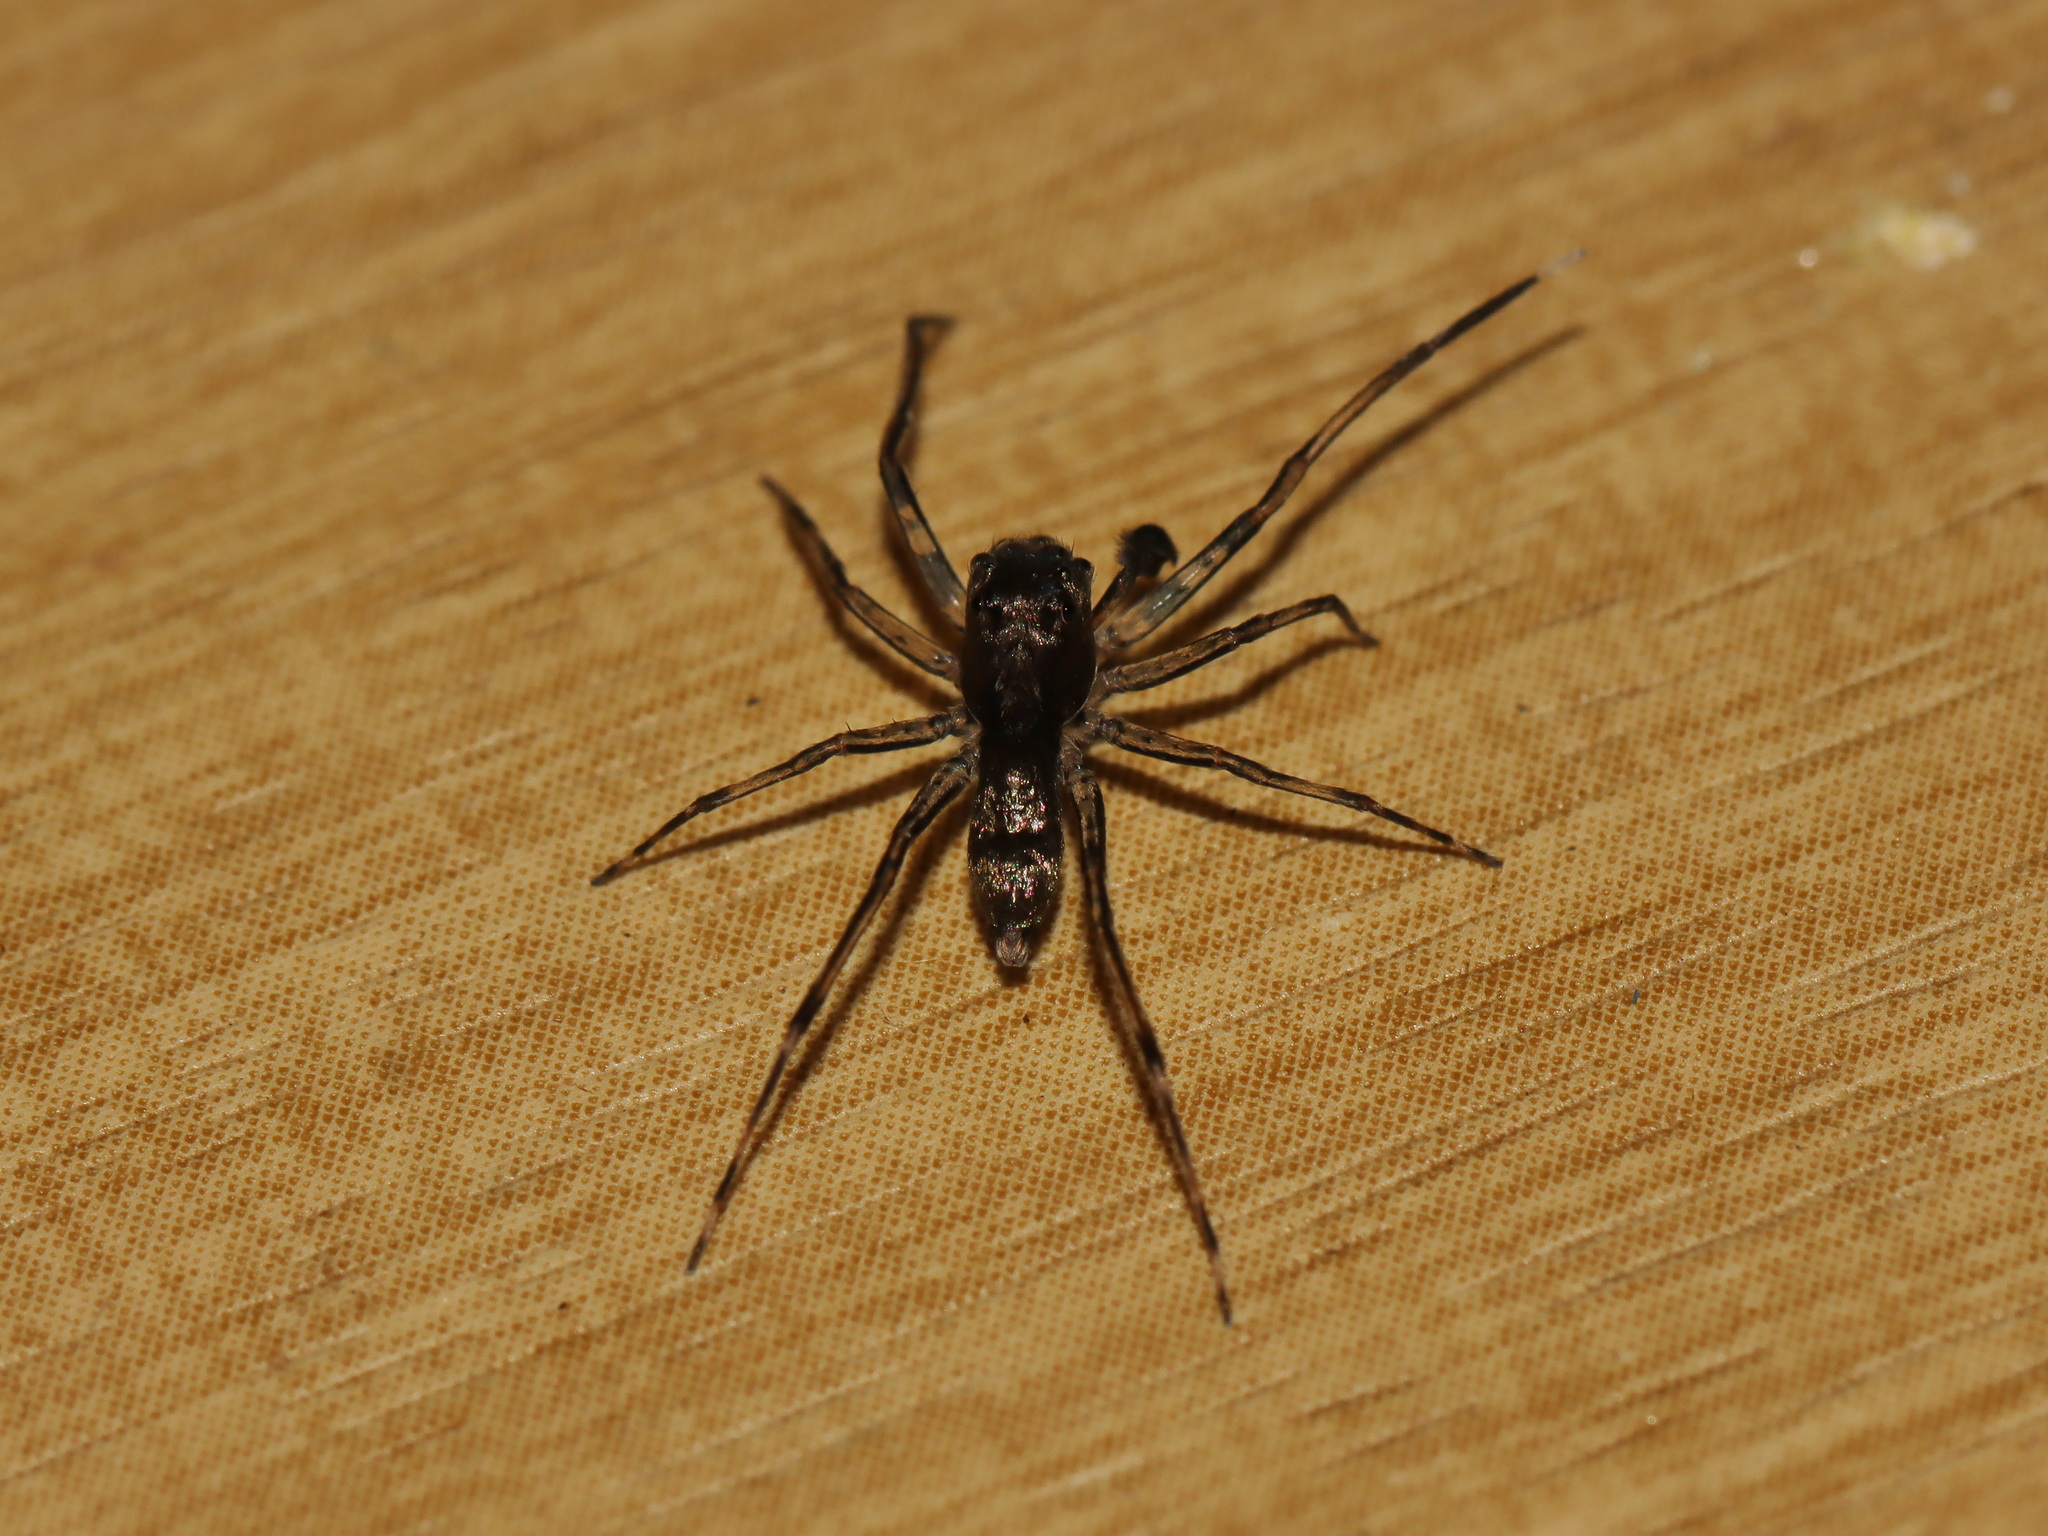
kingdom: Animalia
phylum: Arthropoda
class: Arachnida
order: Araneae
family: Salticidae
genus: Spartaeus
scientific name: Spartaeus spinimanus
